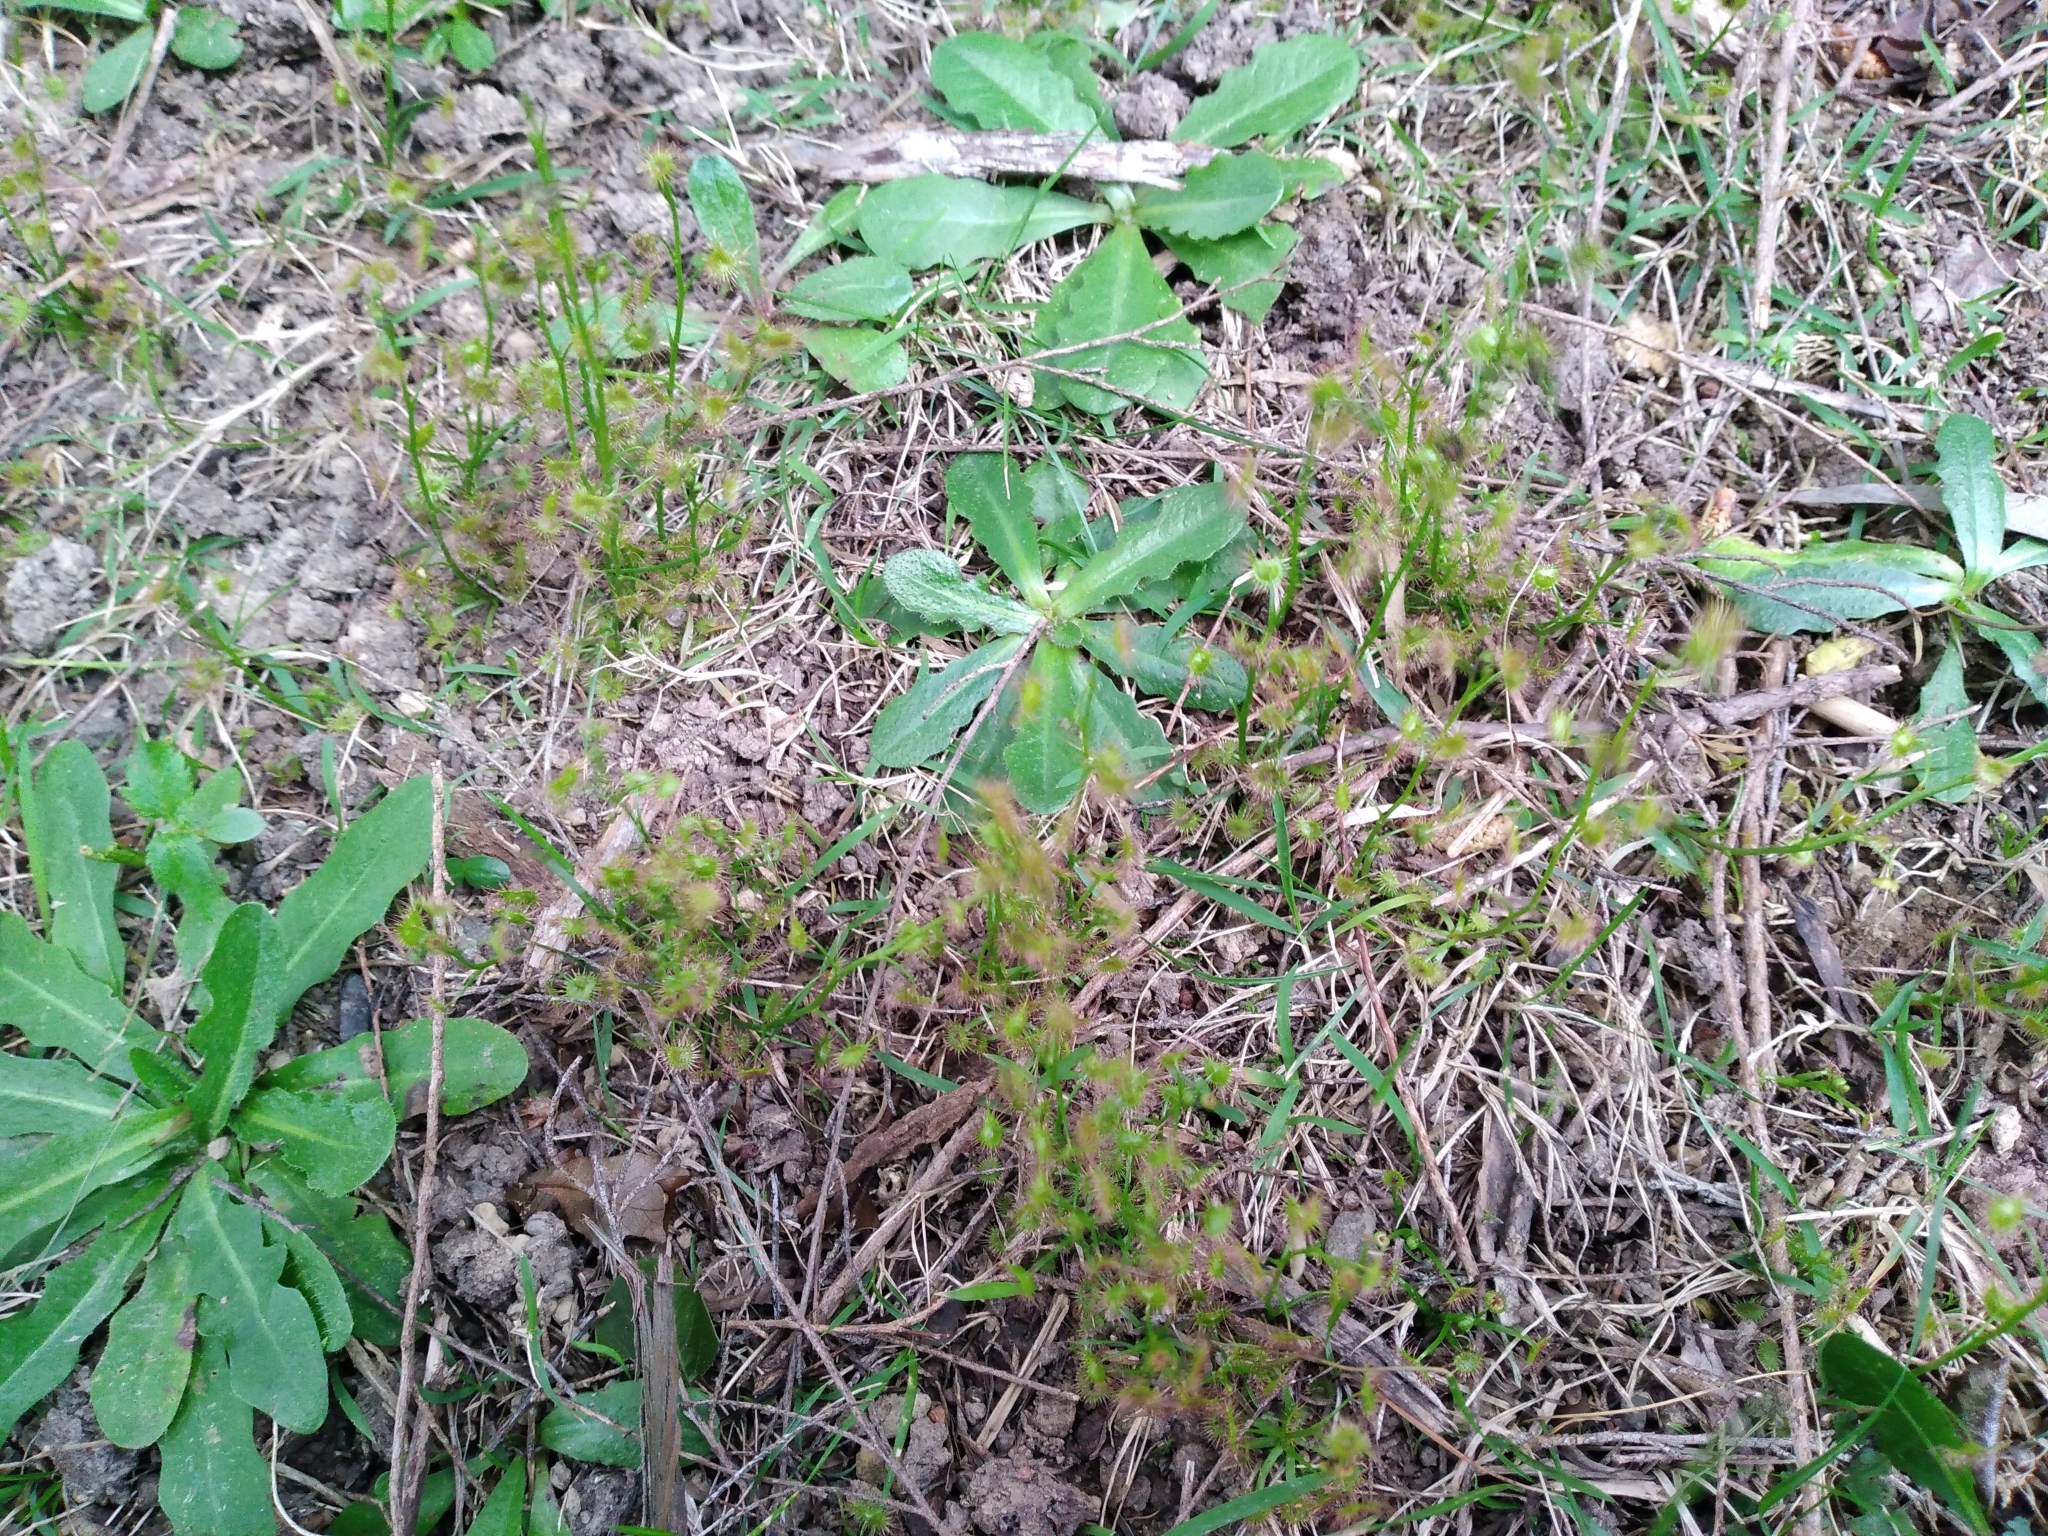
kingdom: Plantae
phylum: Tracheophyta
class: Magnoliopsida
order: Caryophyllales
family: Droseraceae
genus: Drosera
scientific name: Drosera peltata
